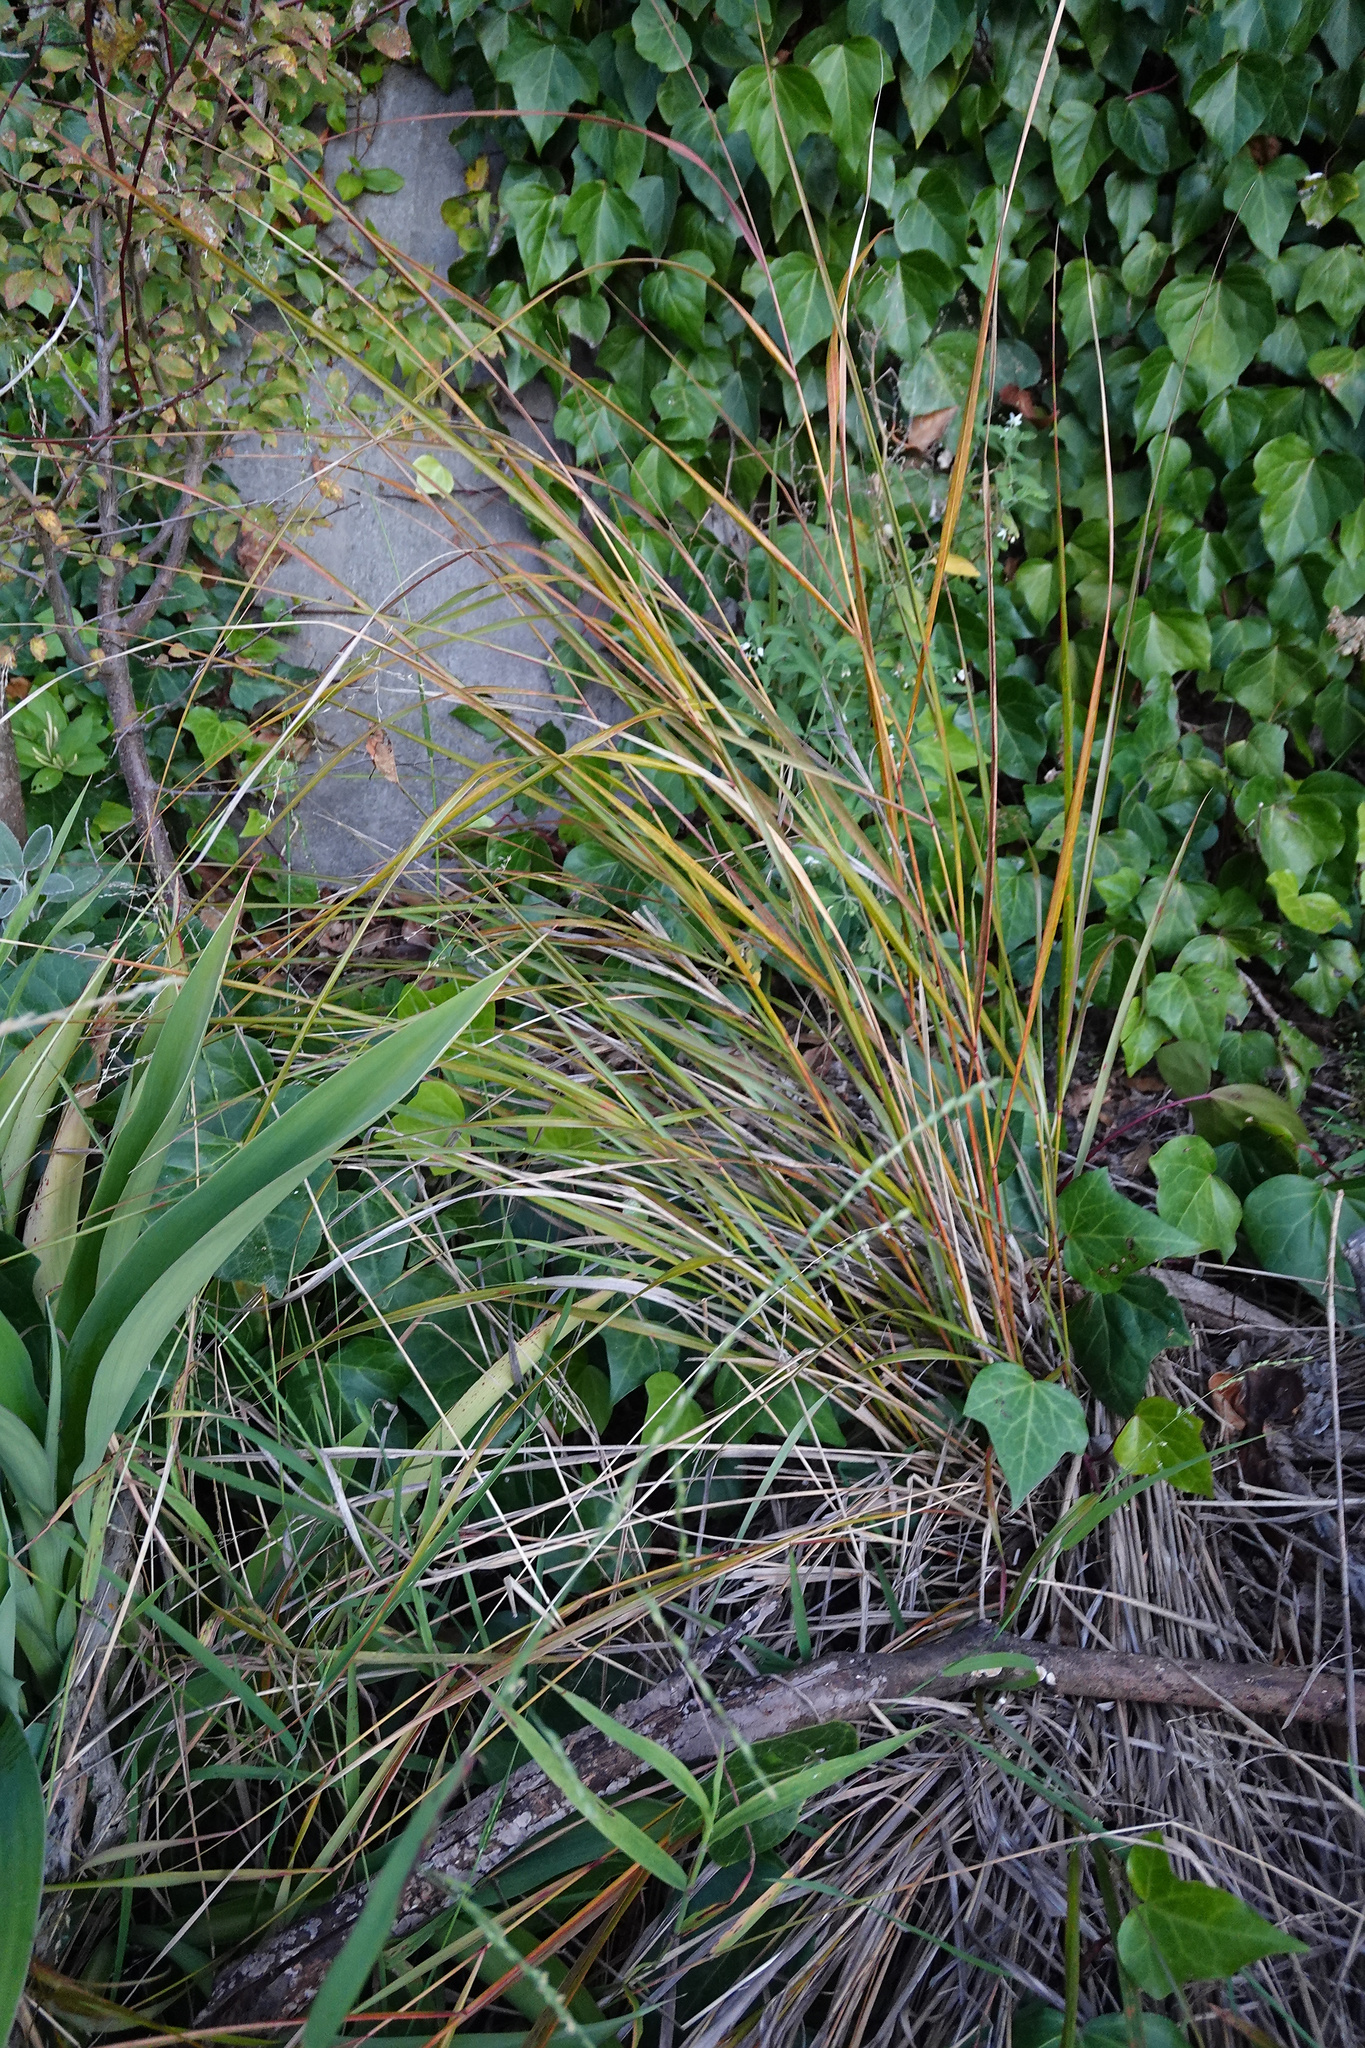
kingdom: Plantae
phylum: Tracheophyta
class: Liliopsida
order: Poales
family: Poaceae
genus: Anemanthele
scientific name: Anemanthele lessoniana
